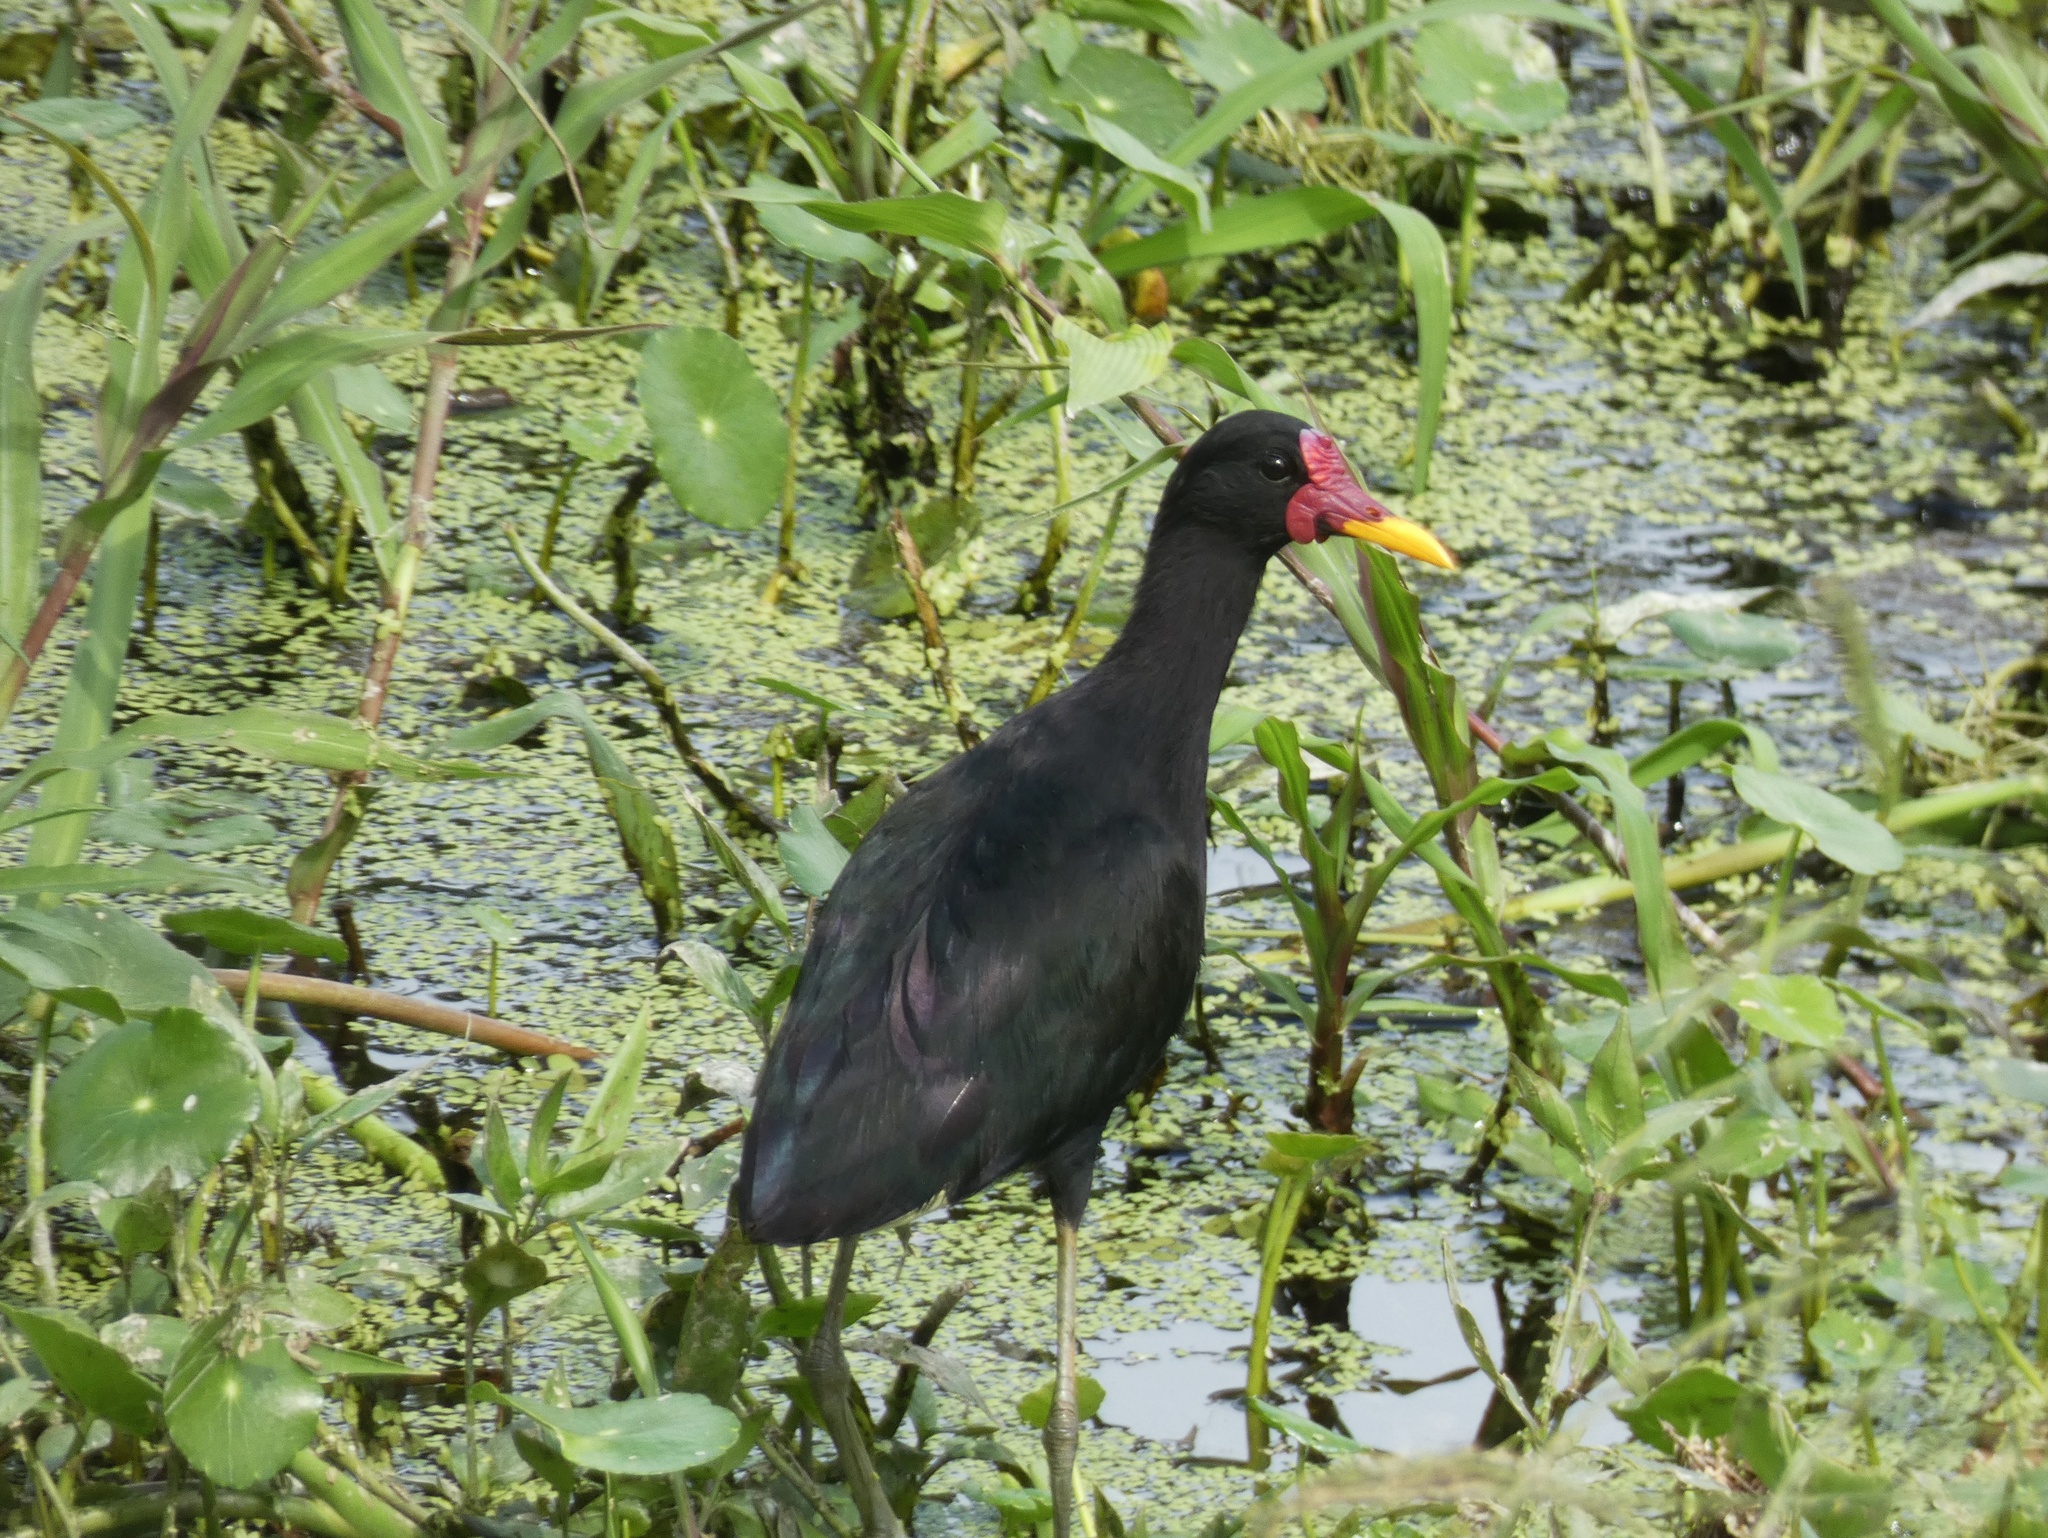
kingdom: Animalia
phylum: Chordata
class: Aves
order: Charadriiformes
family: Jacanidae
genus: Jacana
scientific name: Jacana jacana
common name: Wattled jacana
